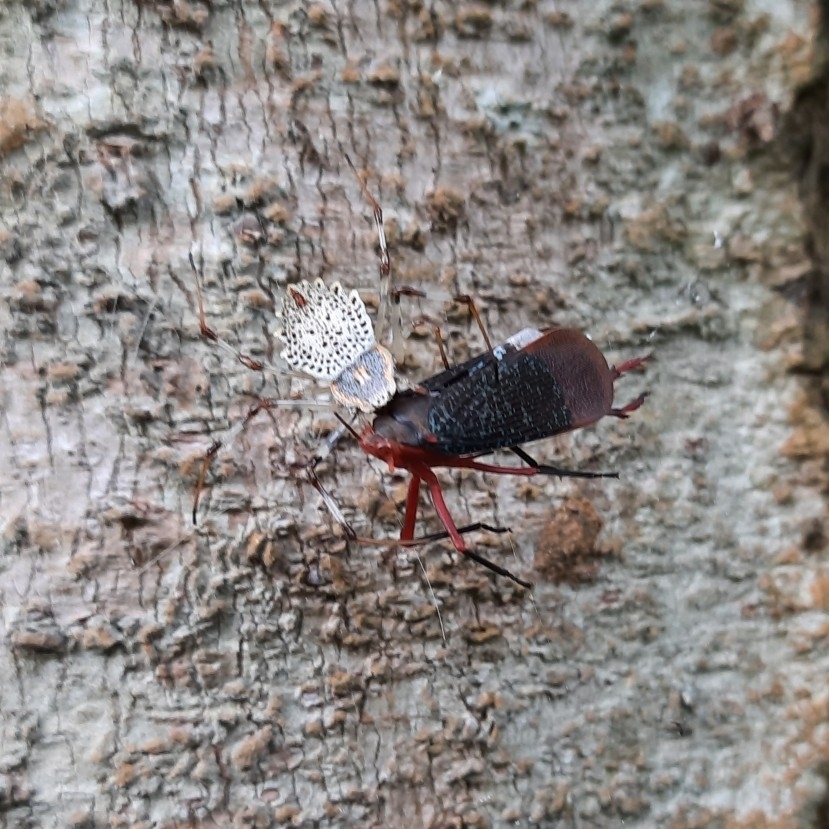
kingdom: Animalia
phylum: Arthropoda
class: Arachnida
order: Araneae
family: Araneidae
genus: Herennia
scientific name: Herennia multipuncta
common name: Spotted coin spider
